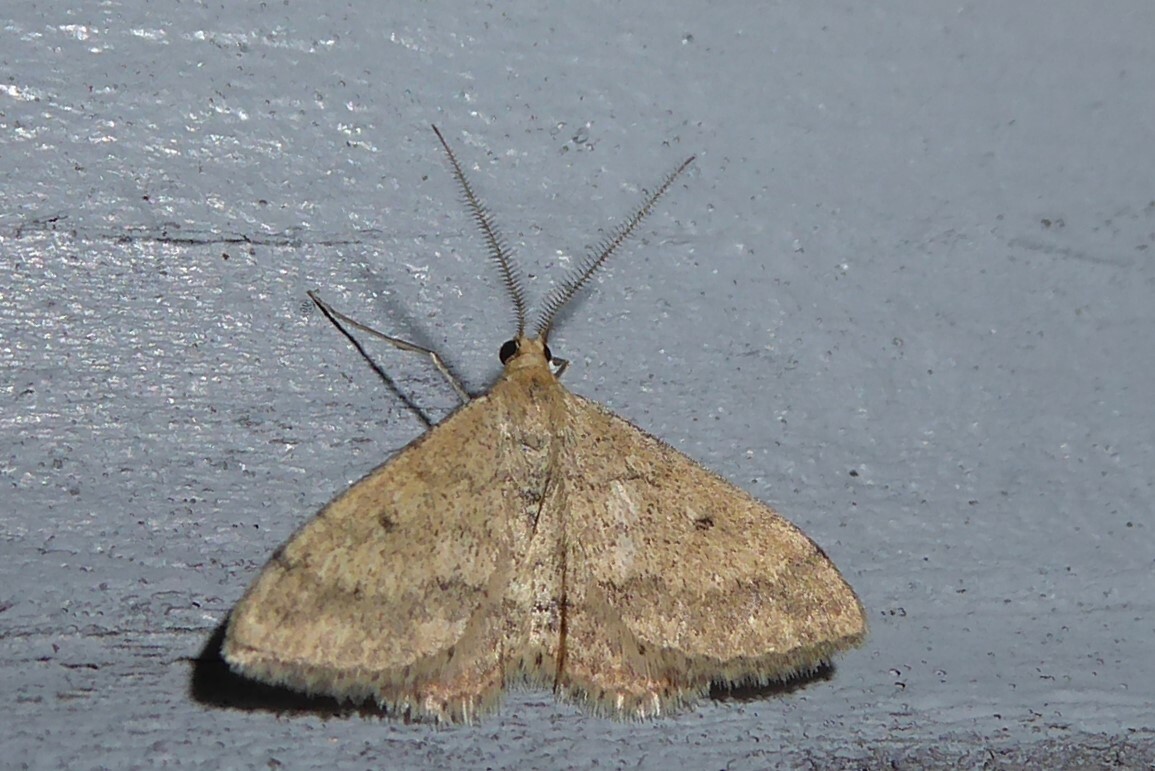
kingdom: Animalia
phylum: Arthropoda
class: Insecta
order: Lepidoptera
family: Geometridae
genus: Scopula
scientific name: Scopula rubraria
